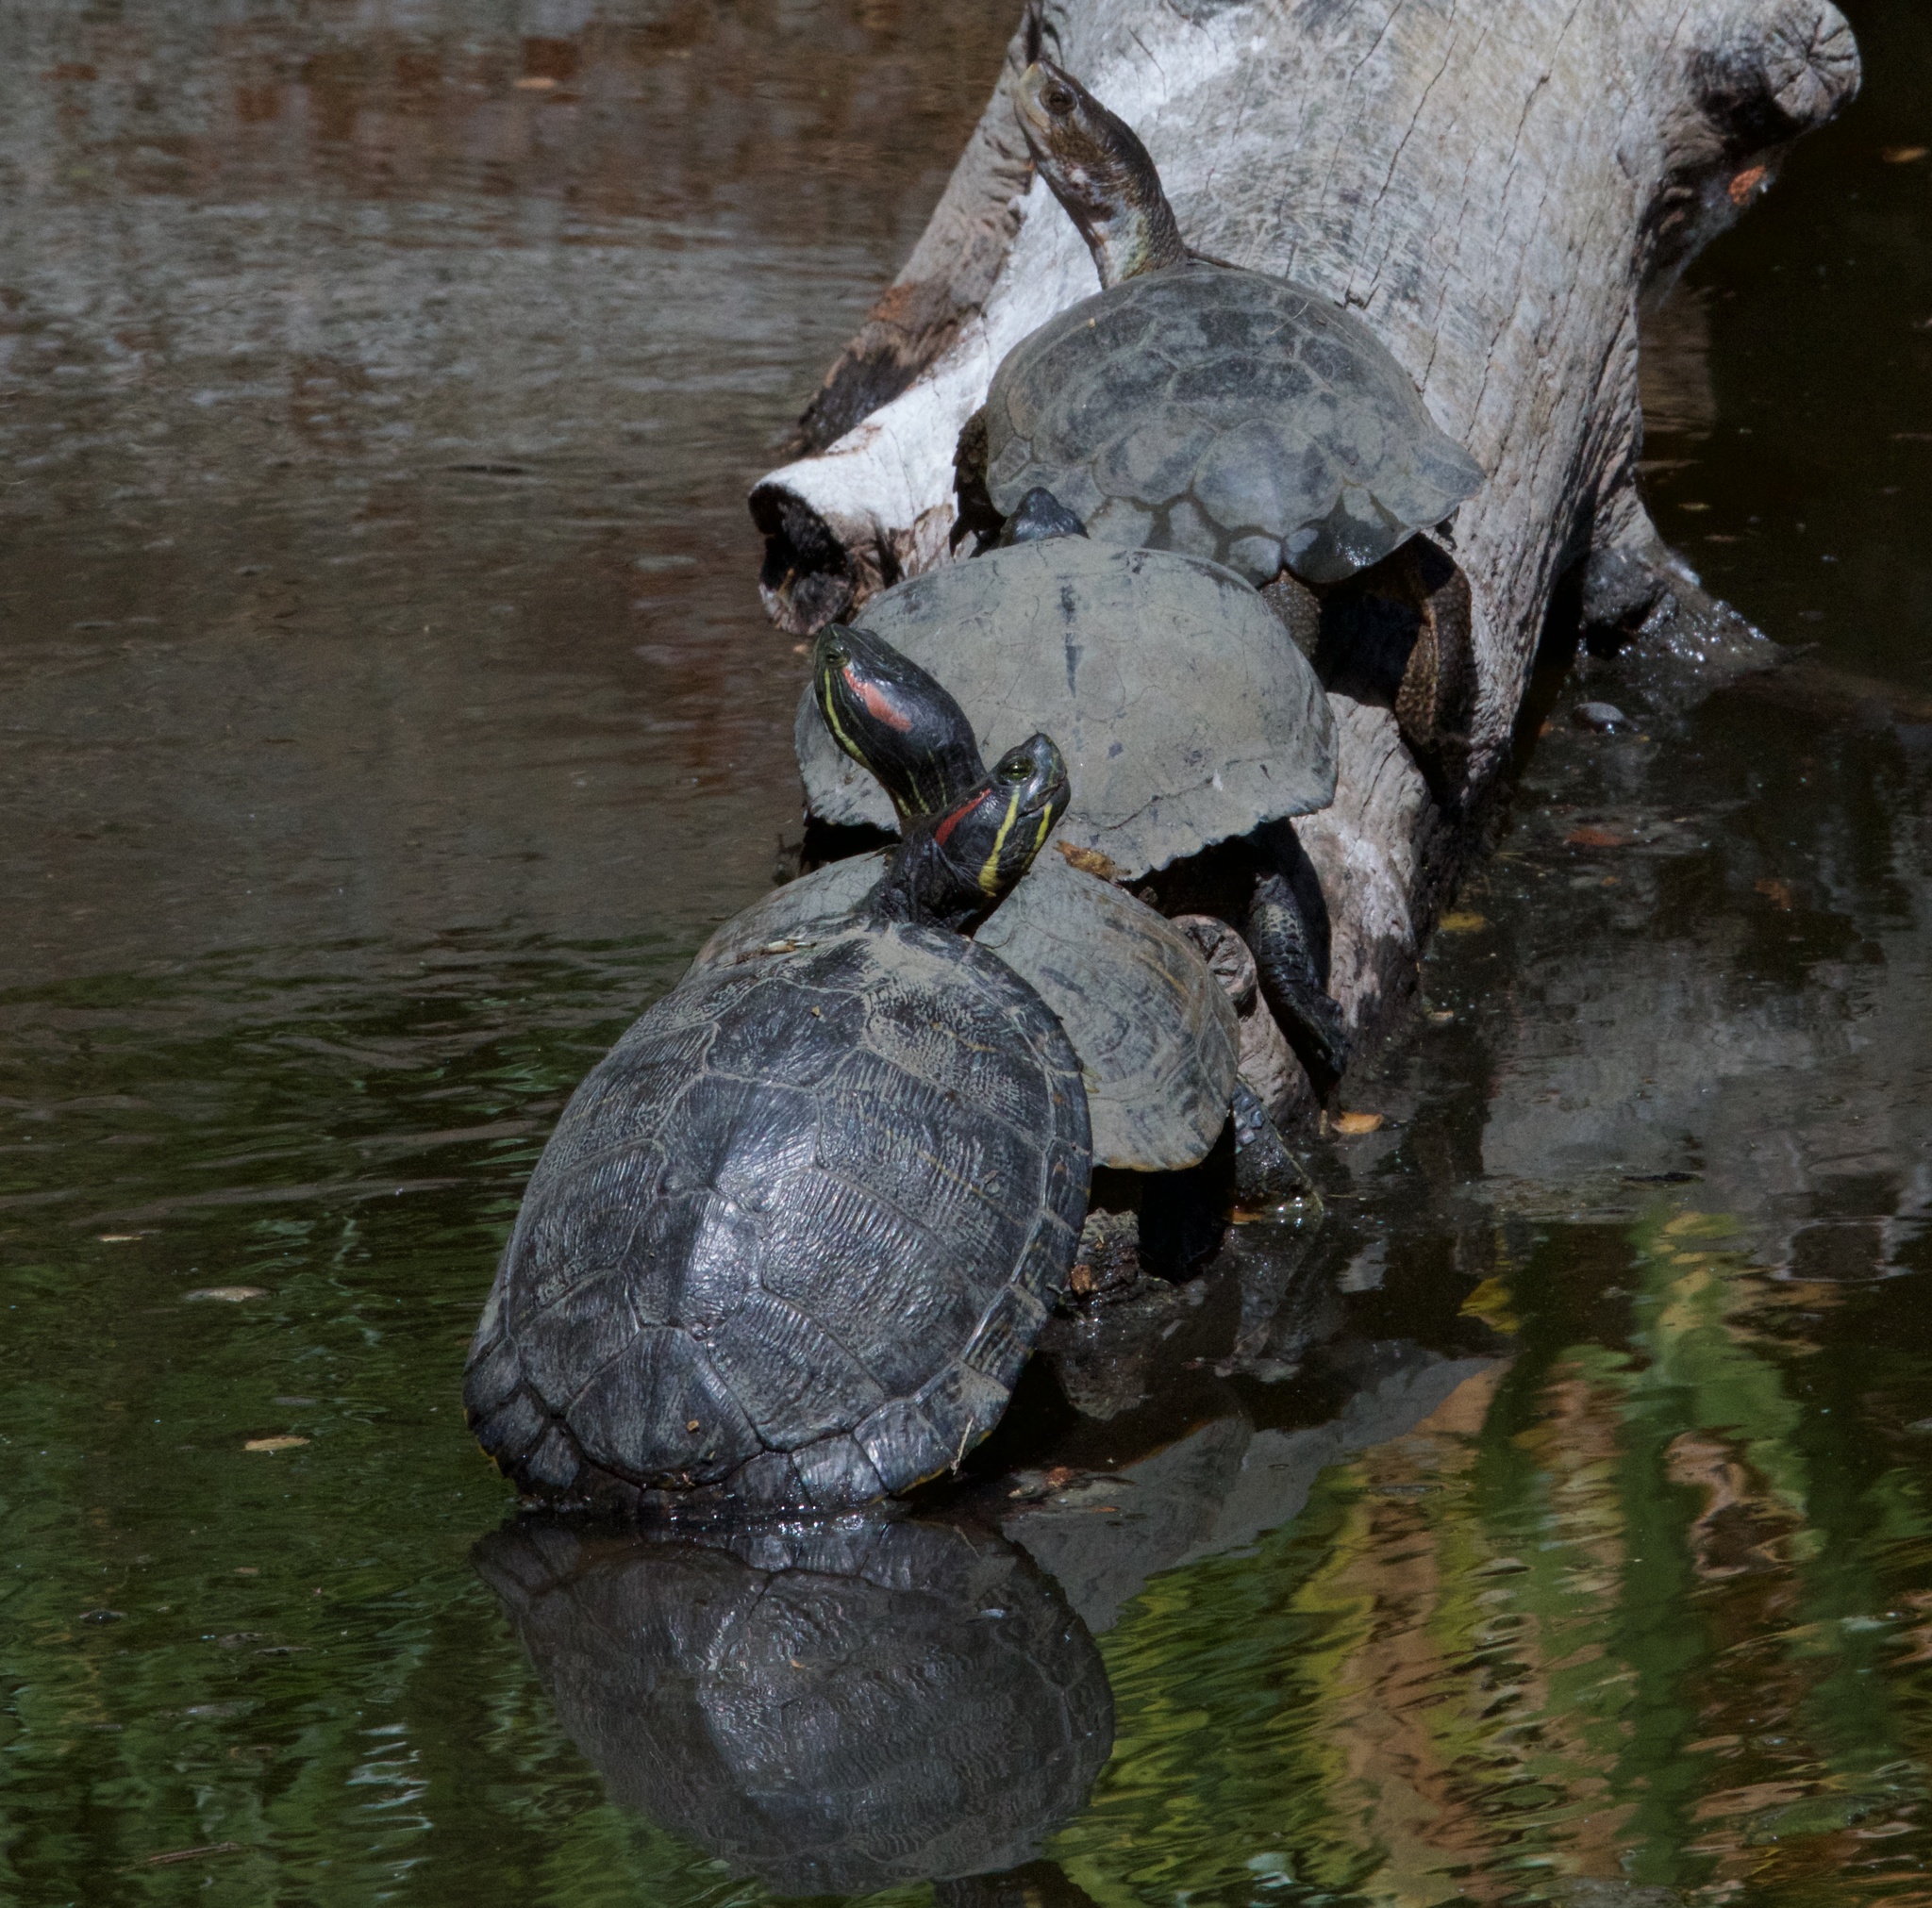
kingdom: Animalia
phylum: Chordata
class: Testudines
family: Emydidae
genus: Trachemys
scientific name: Trachemys scripta
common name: Slider
